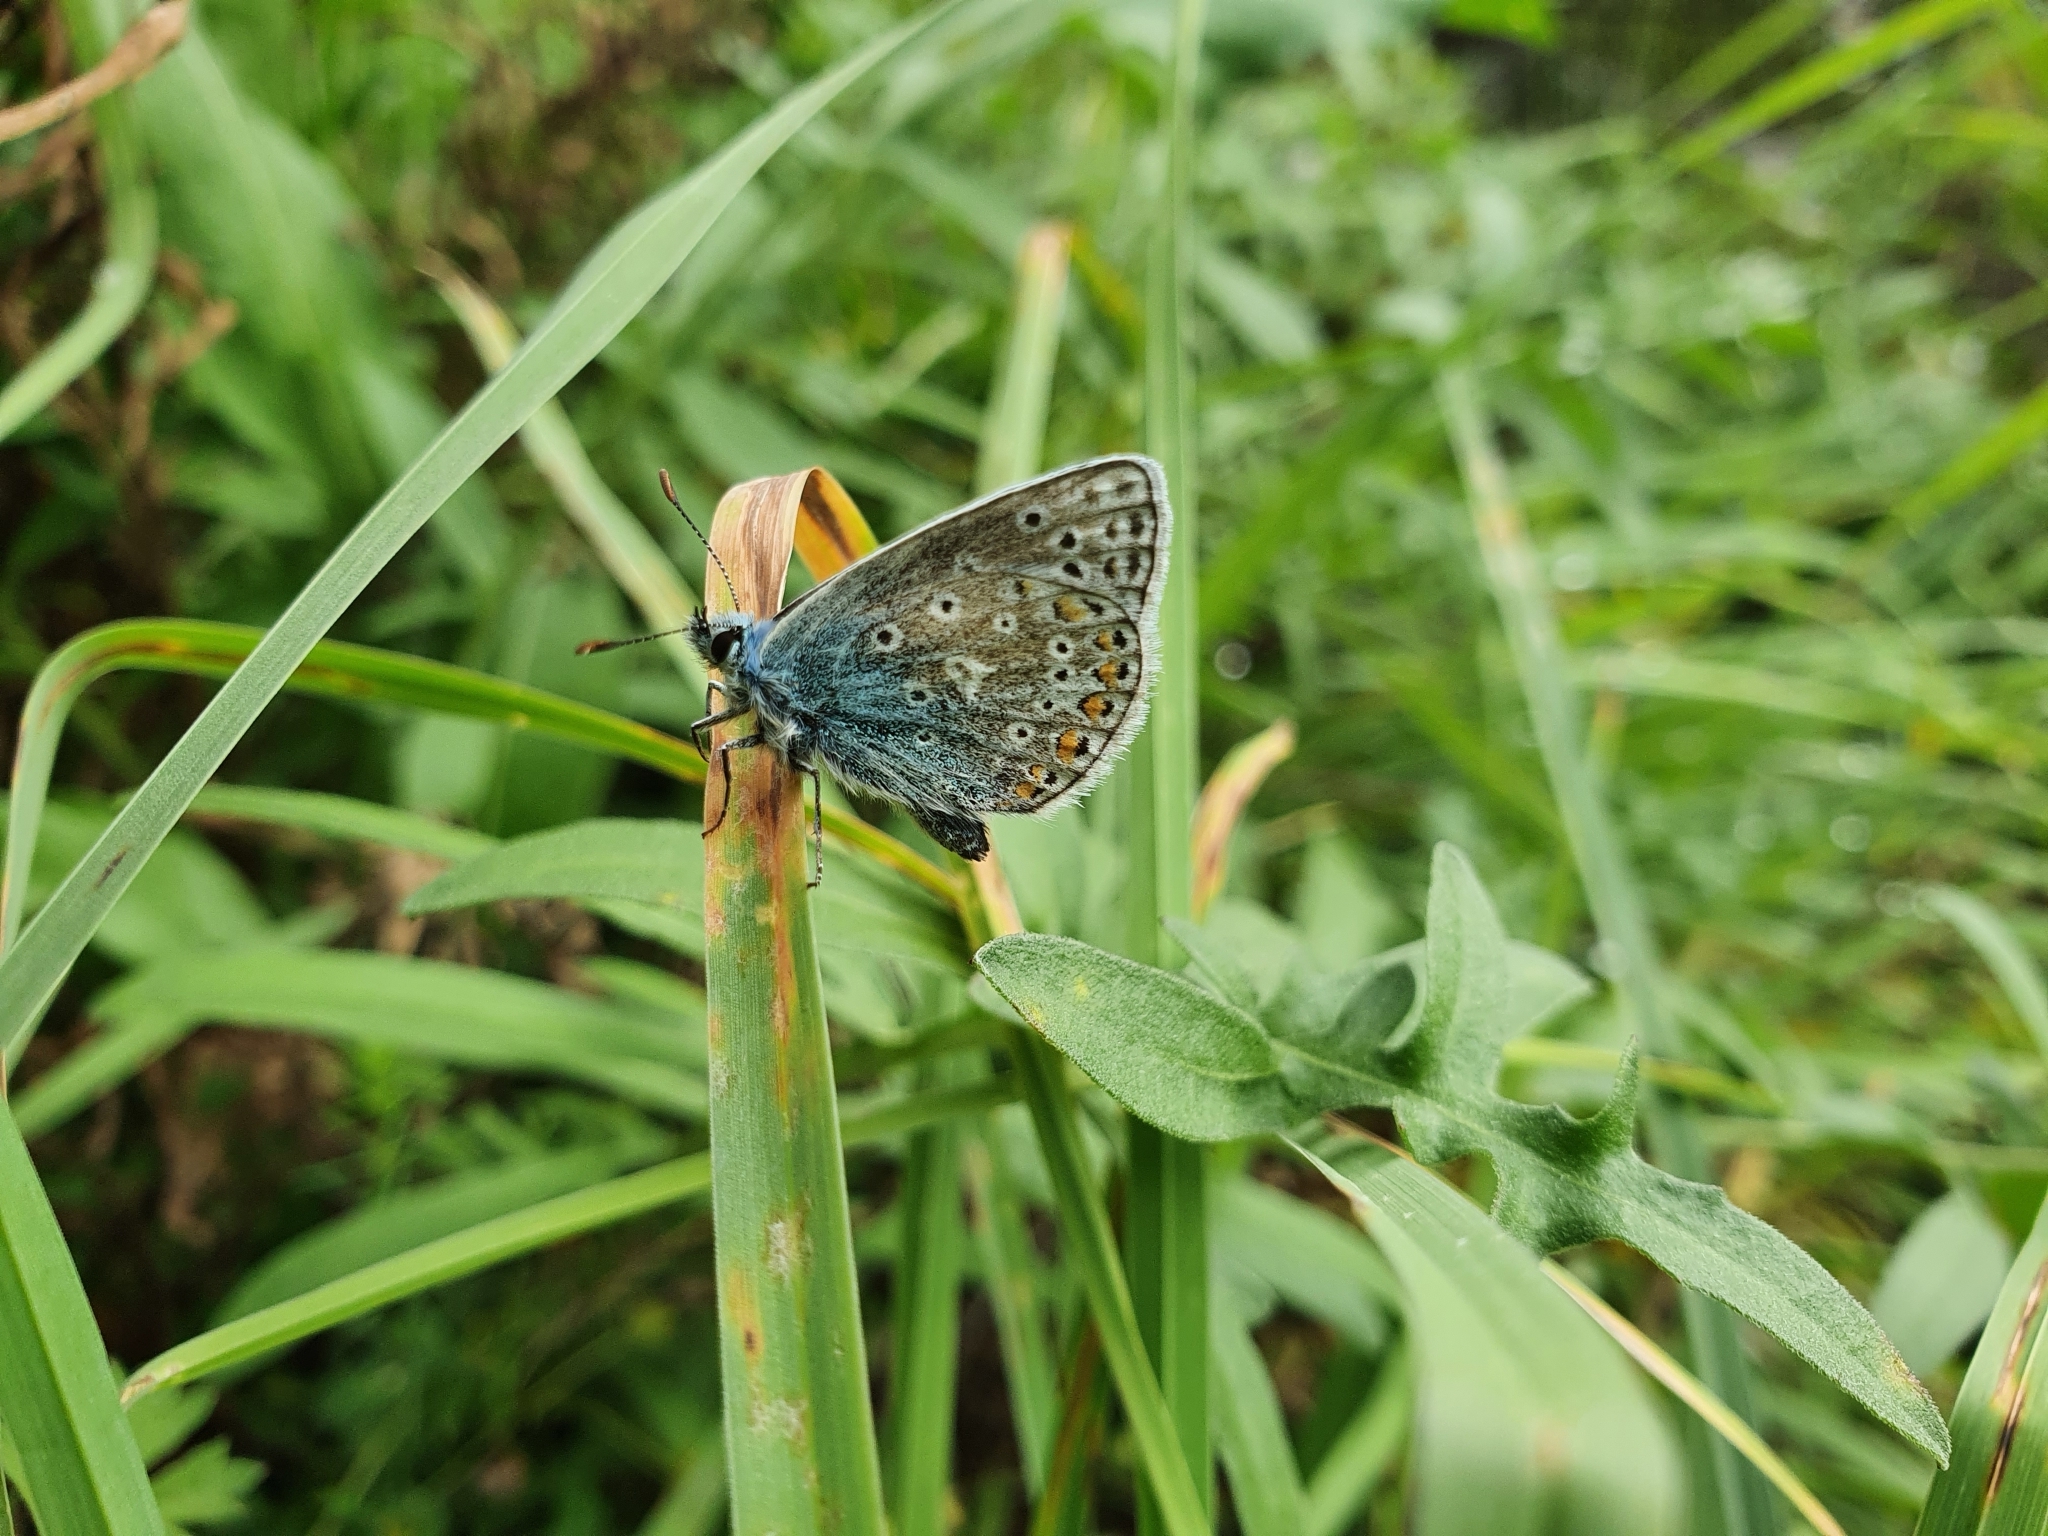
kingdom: Animalia
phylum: Arthropoda
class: Insecta
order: Lepidoptera
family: Lycaenidae
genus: Polyommatus
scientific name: Polyommatus icarus
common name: Common blue
